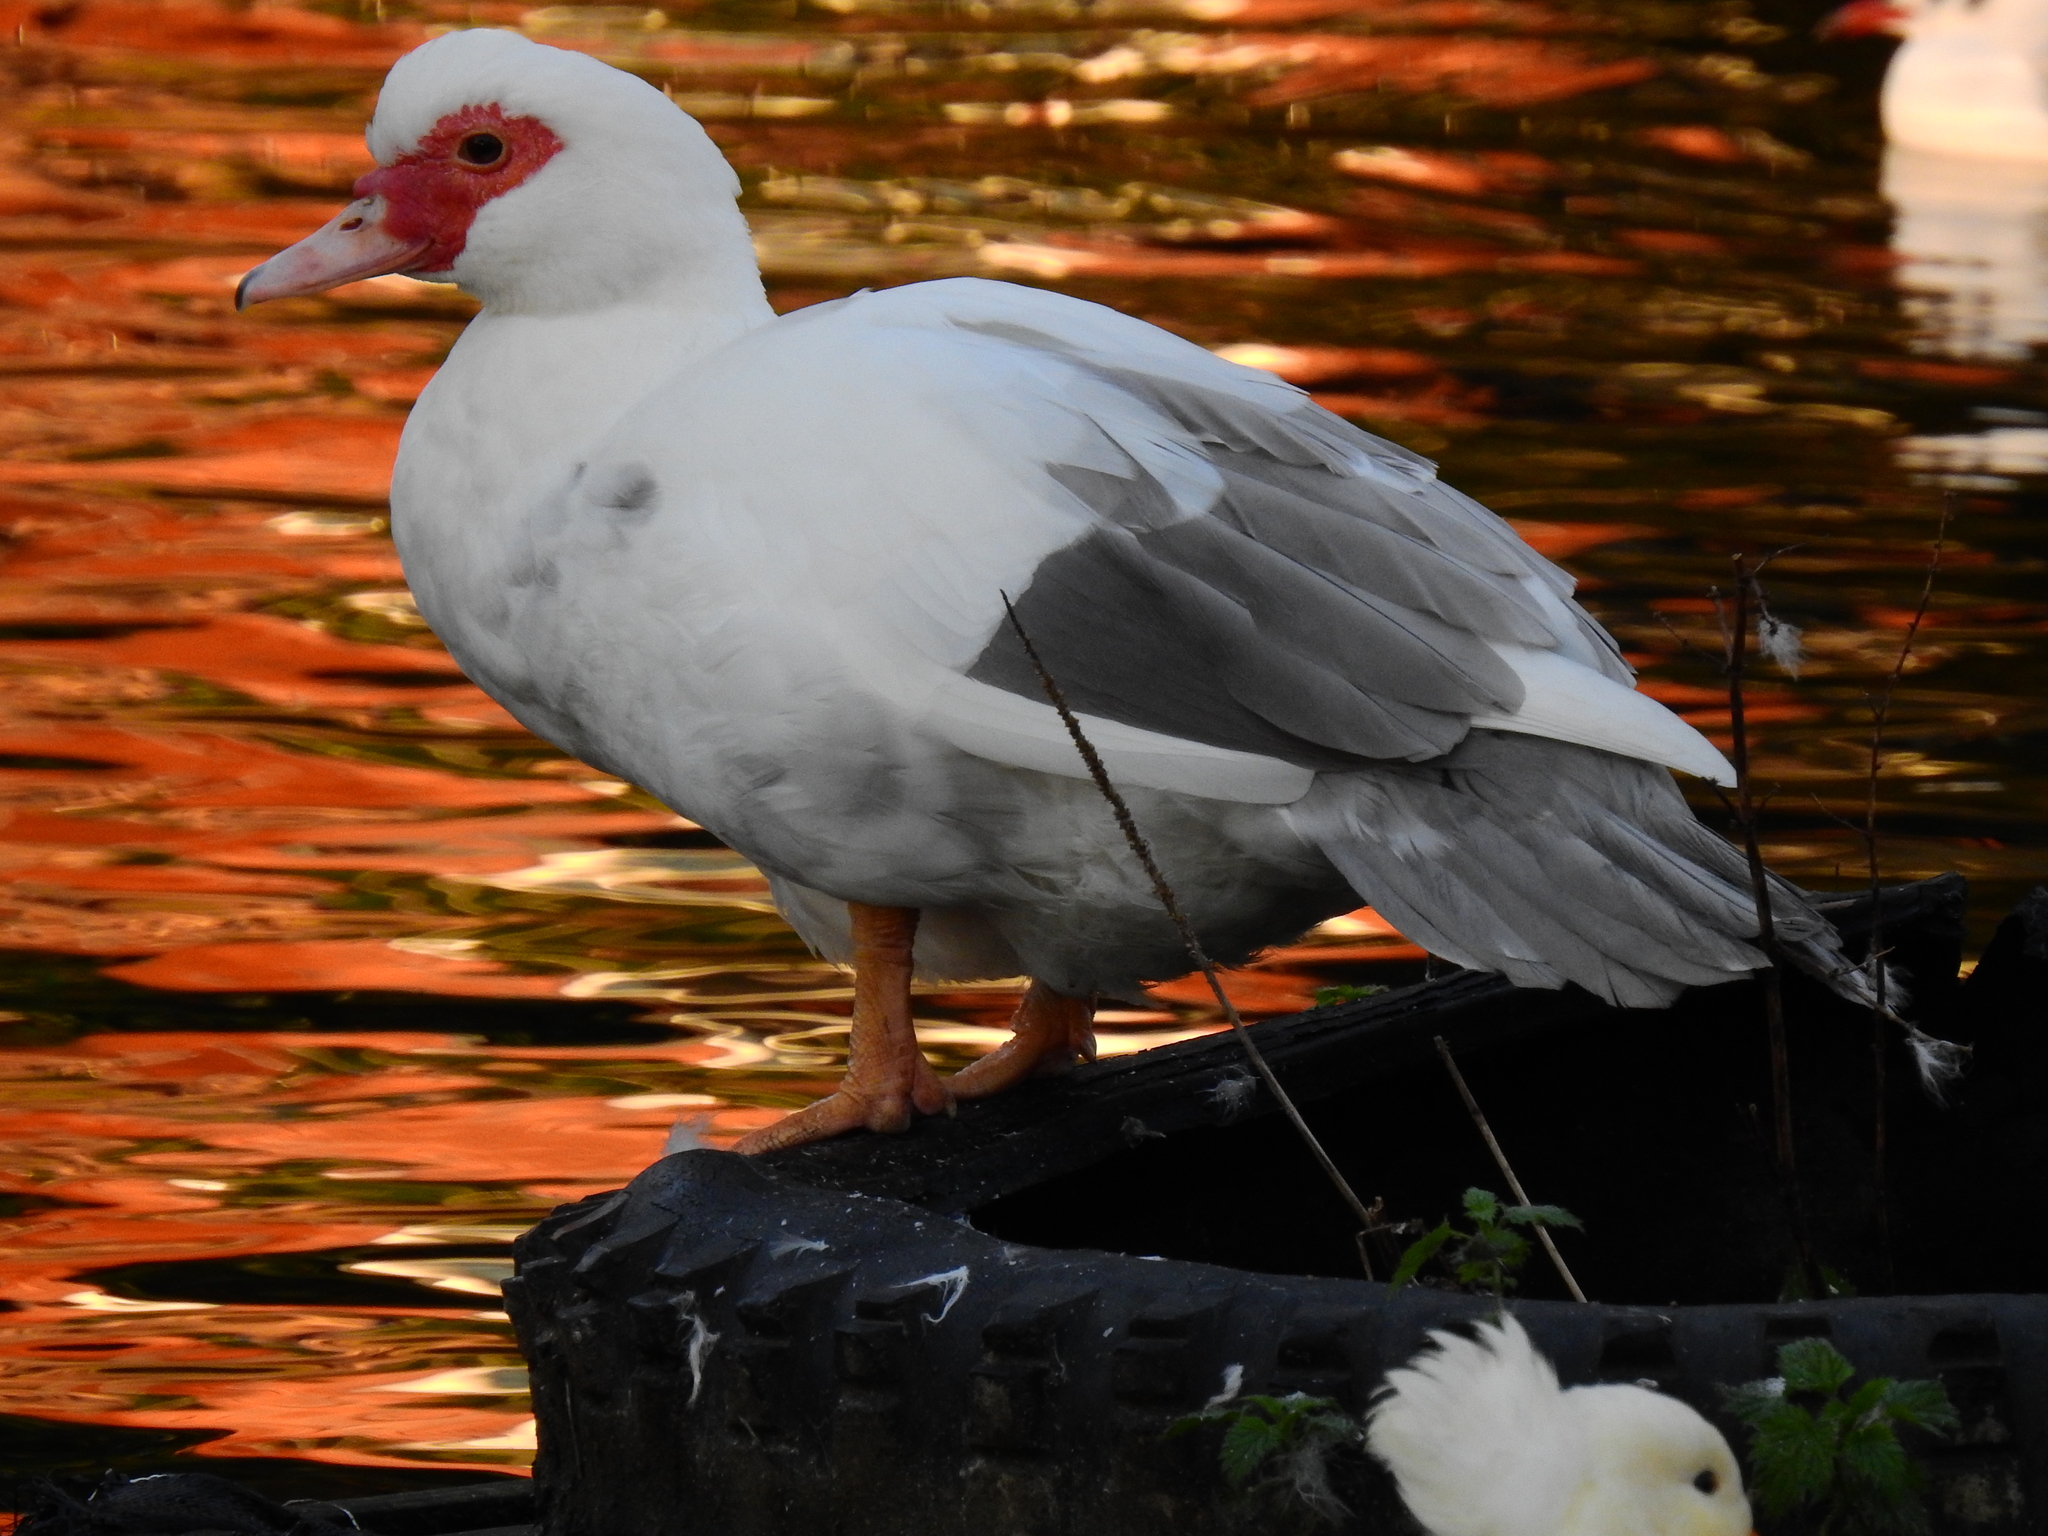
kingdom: Animalia
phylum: Chordata
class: Aves
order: Anseriformes
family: Anatidae
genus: Cairina
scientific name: Cairina moschata
